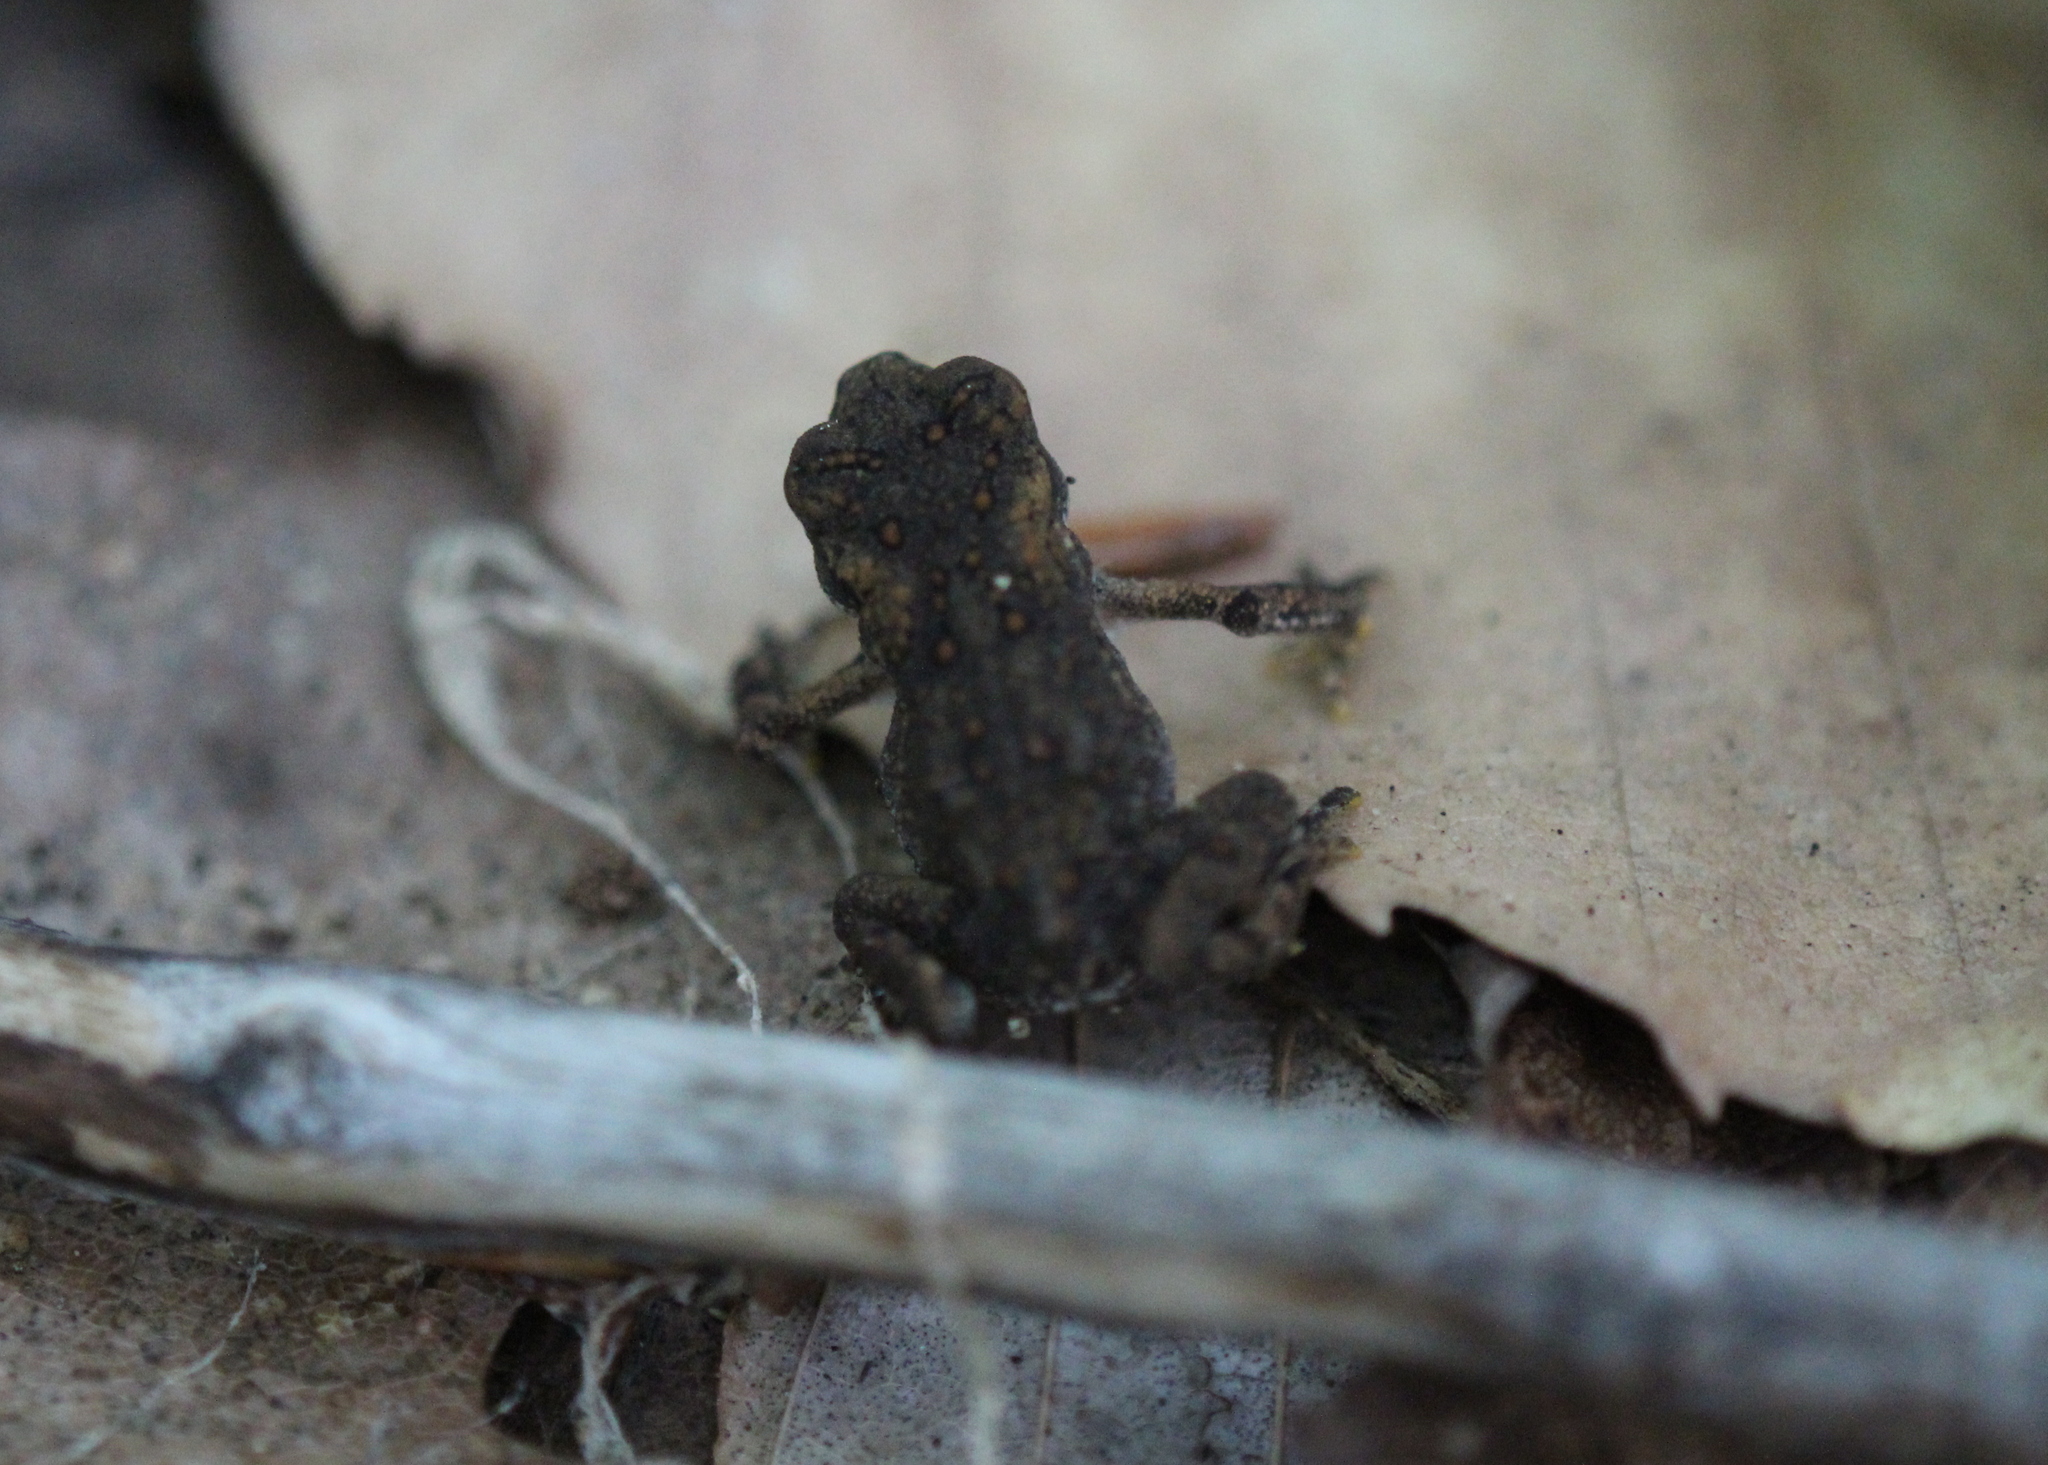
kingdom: Animalia
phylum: Chordata
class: Amphibia
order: Anura
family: Bufonidae
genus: Anaxyrus
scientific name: Anaxyrus americanus
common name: American toad
